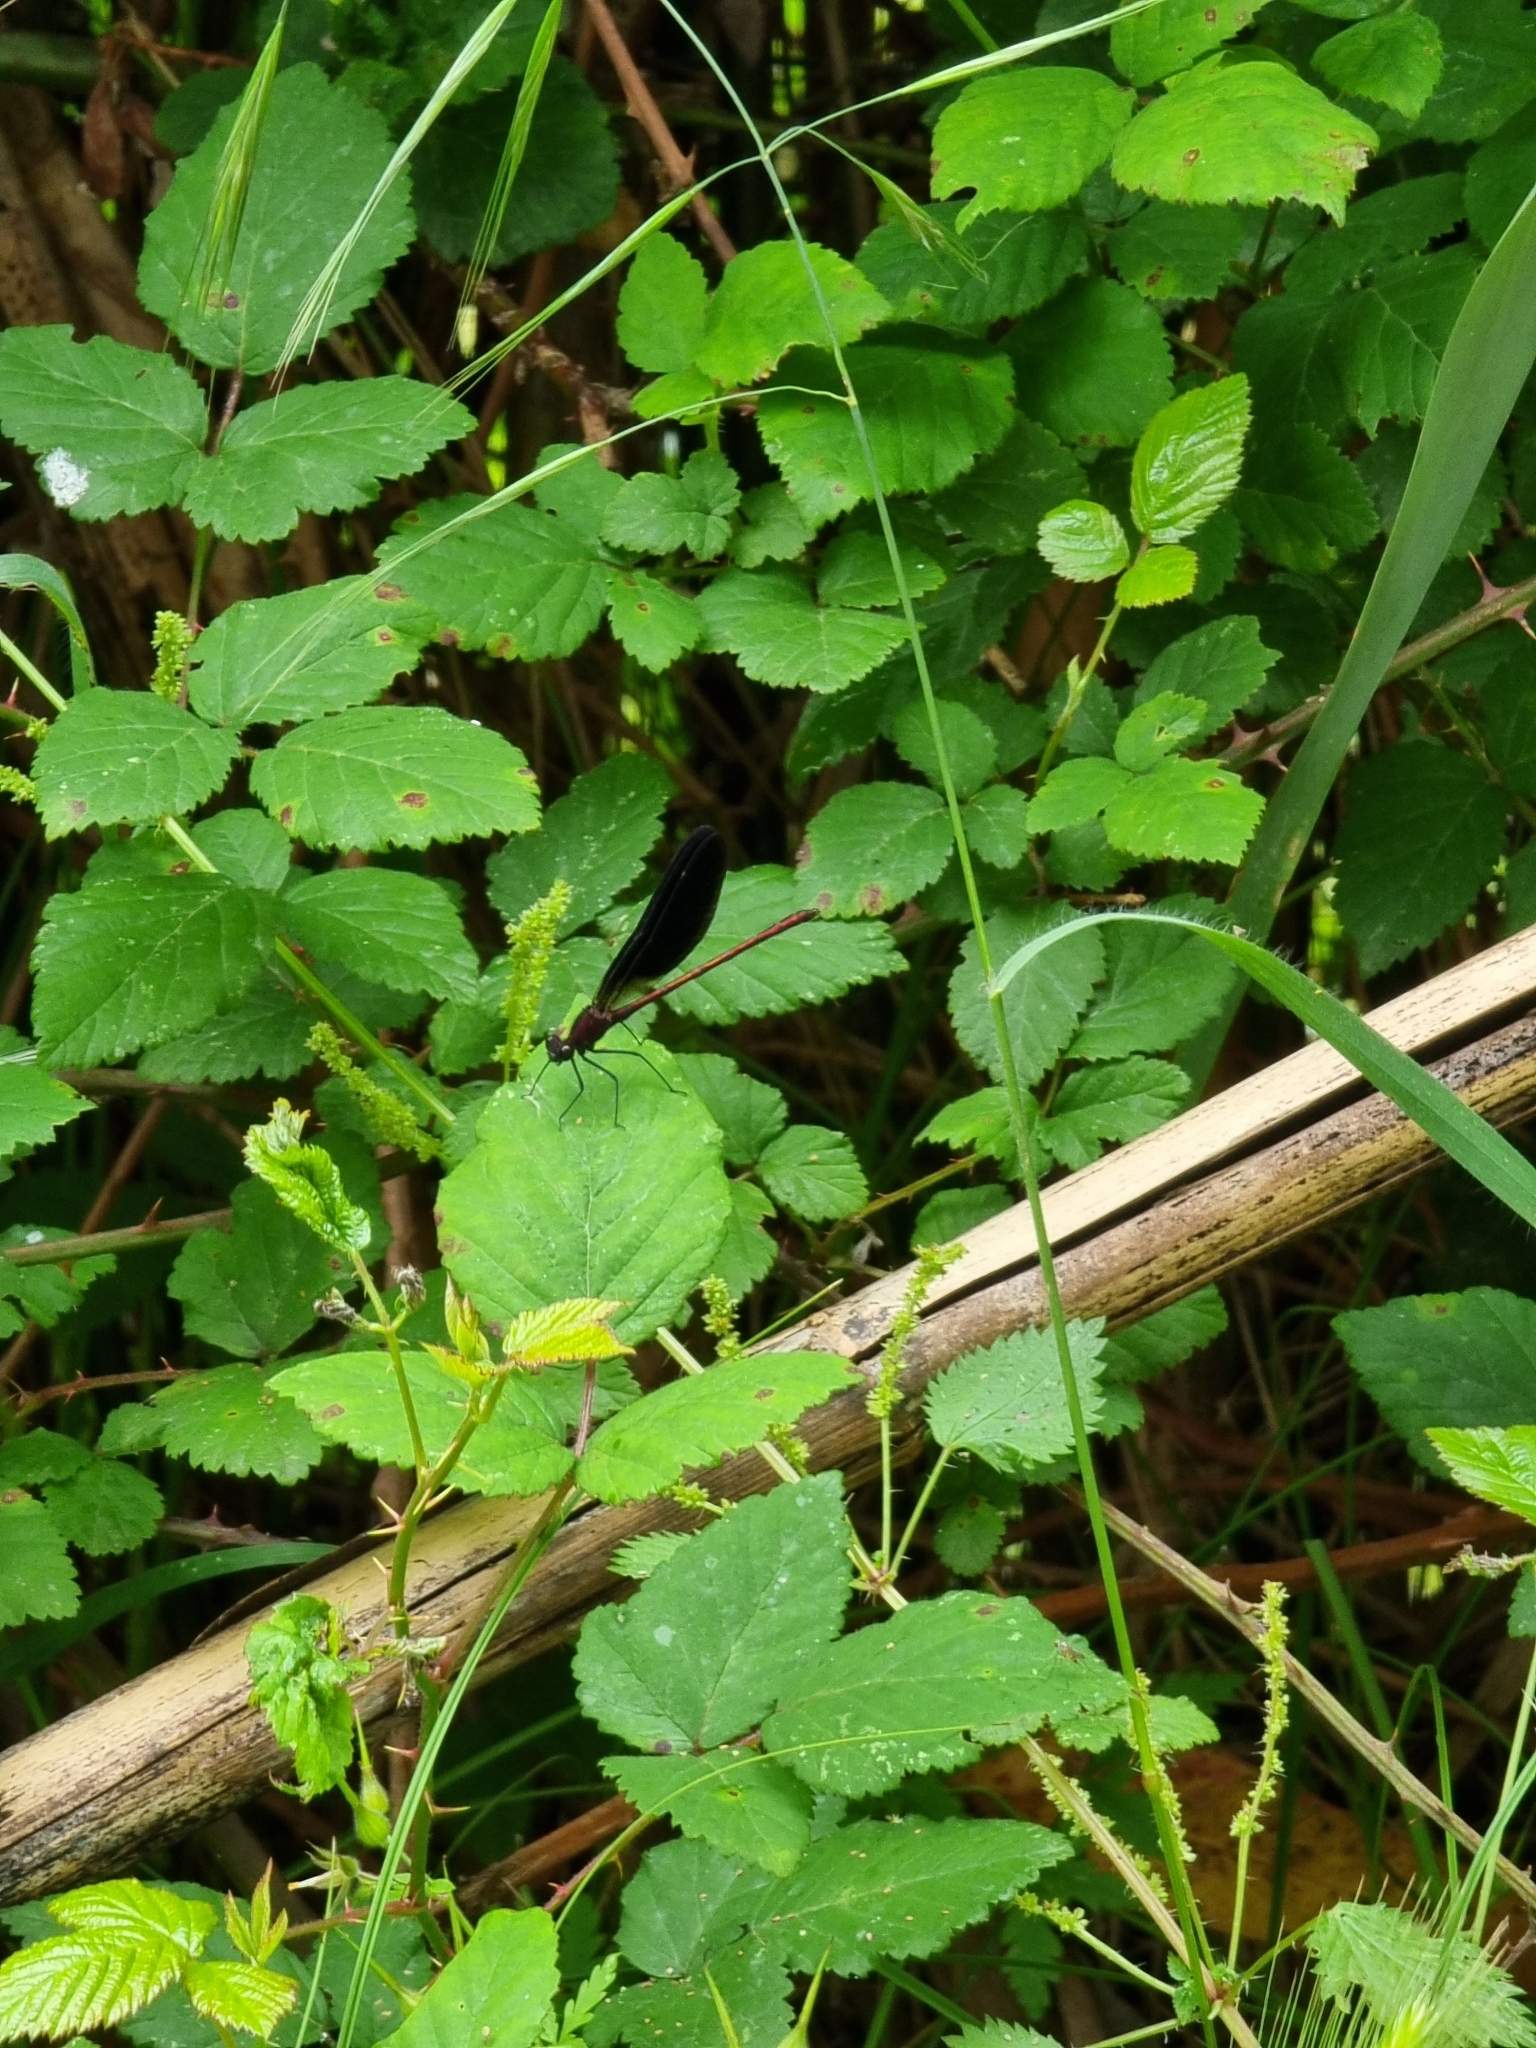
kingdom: Animalia
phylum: Arthropoda
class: Insecta
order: Odonata
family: Calopterygidae
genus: Calopteryx
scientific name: Calopteryx haemorrhoidalis
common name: Copper demoiselle
